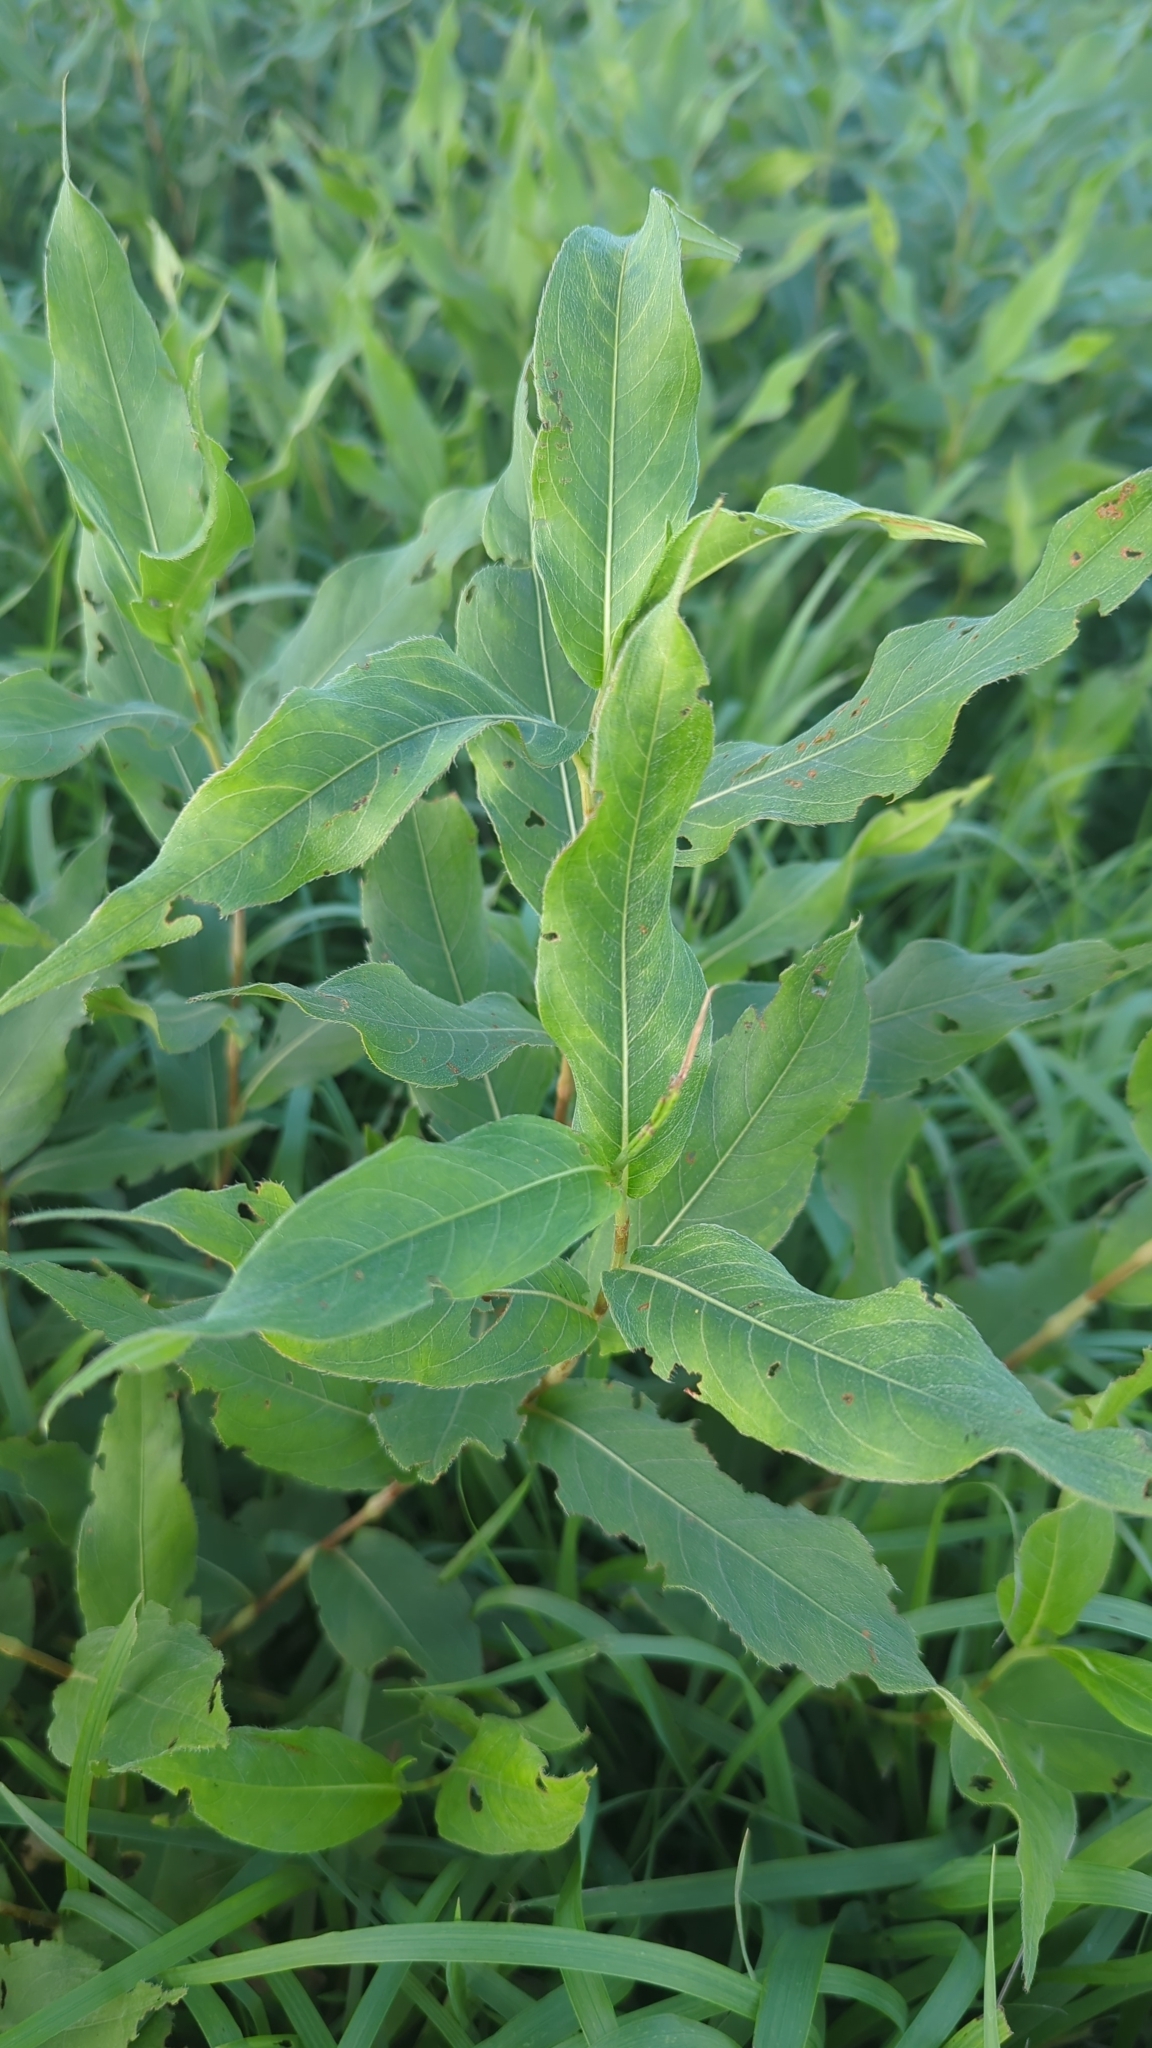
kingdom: Plantae
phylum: Tracheophyta
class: Magnoliopsida
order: Caryophyllales
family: Polygonaceae
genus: Persicaria
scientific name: Persicaria amphibia
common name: Amphibious bistort
